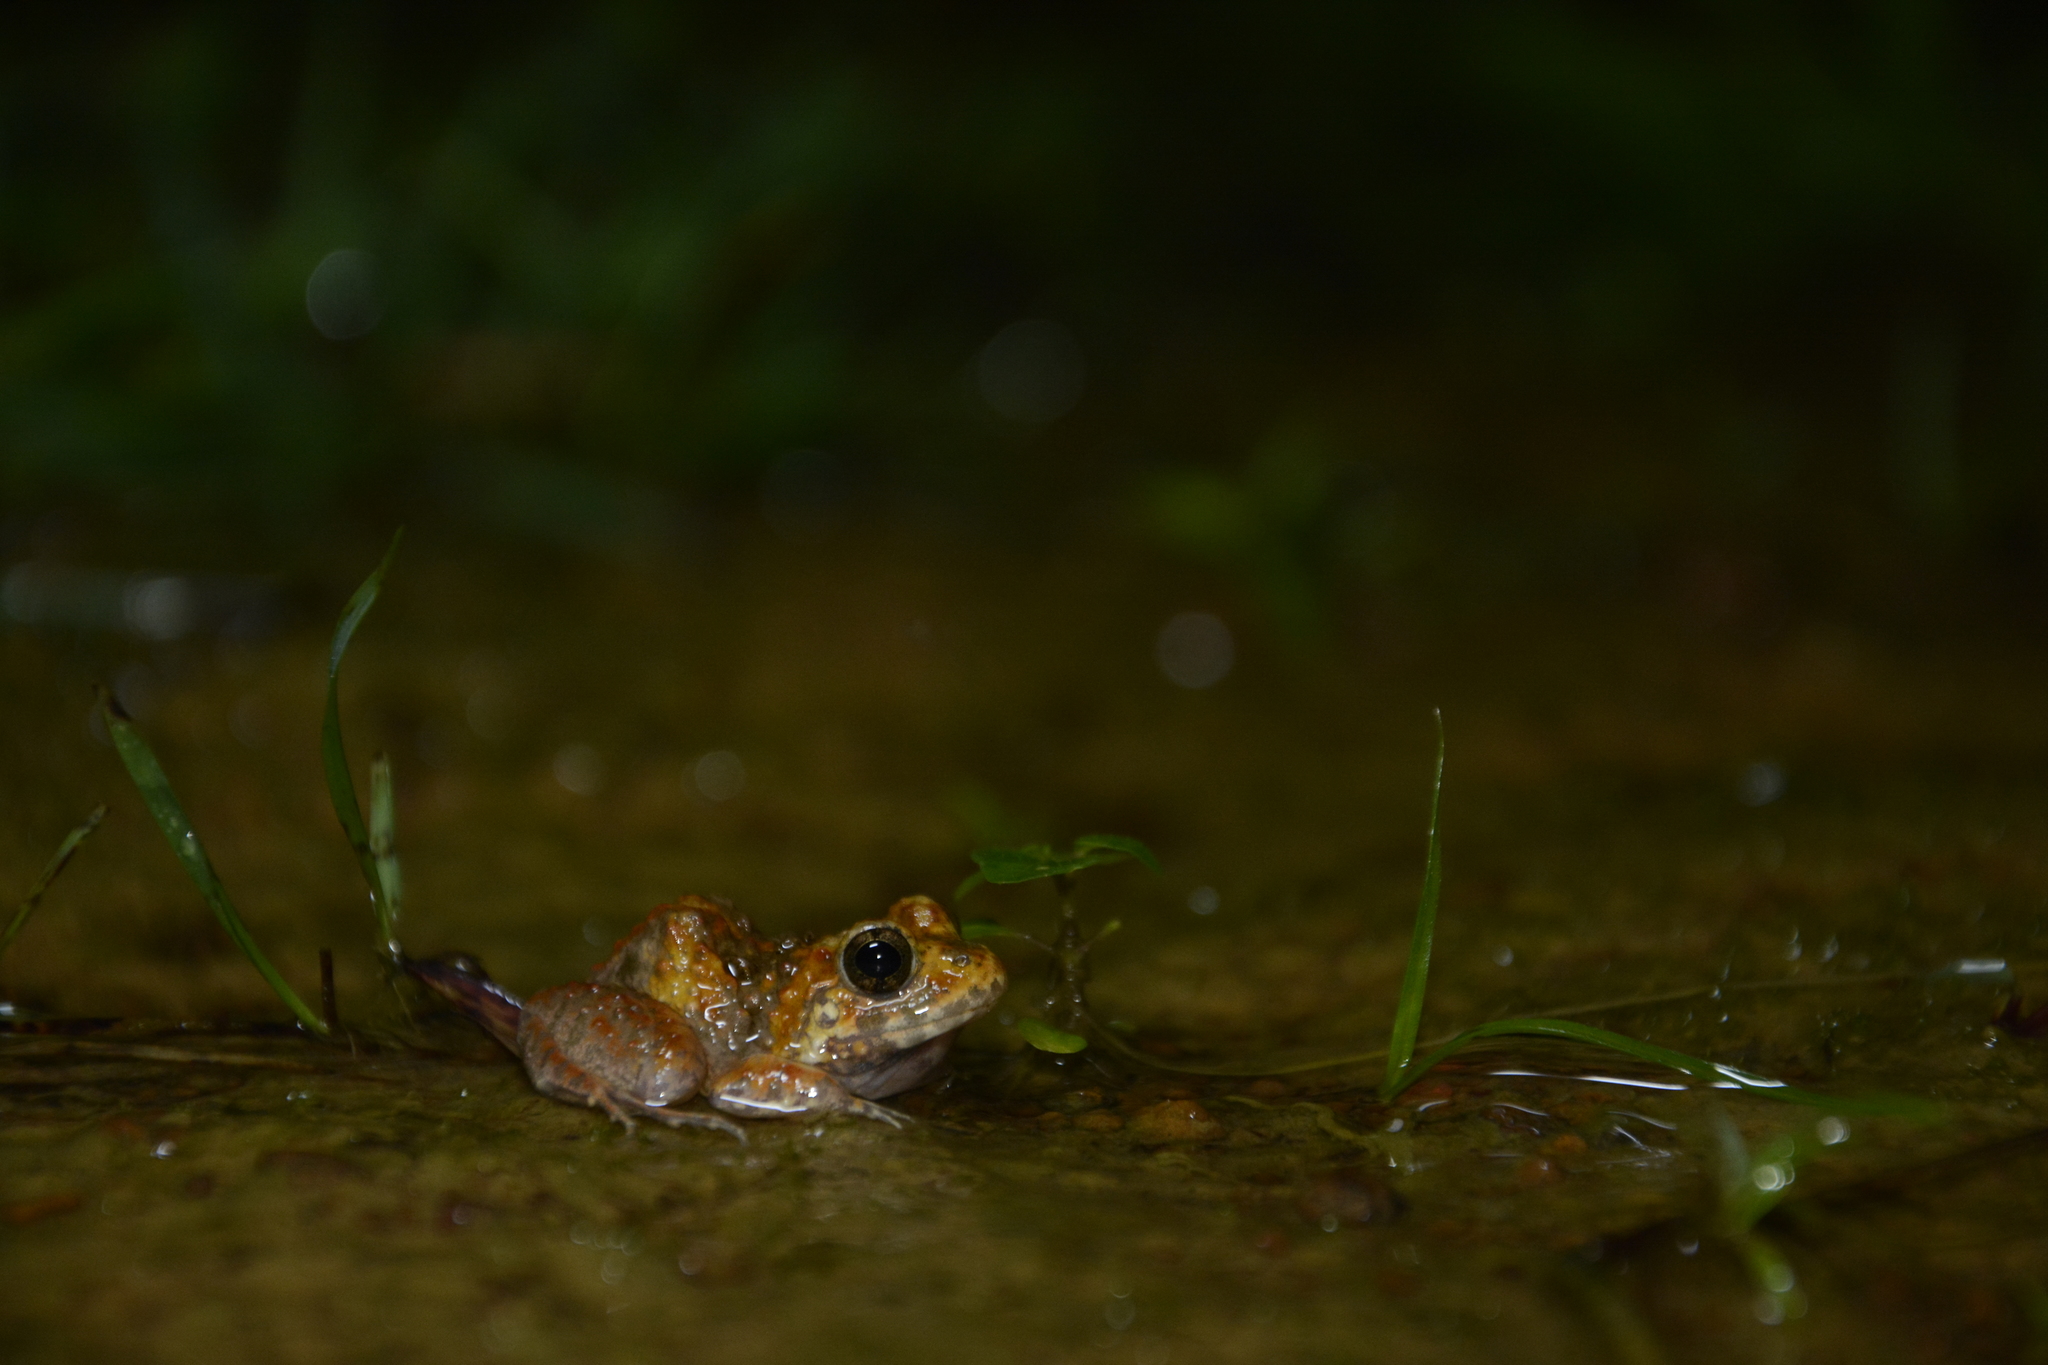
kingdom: Animalia
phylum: Chordata
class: Amphibia
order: Anura
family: Dicroglossidae
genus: Minervarya
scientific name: Minervarya rufescens
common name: Malabar wart frog
